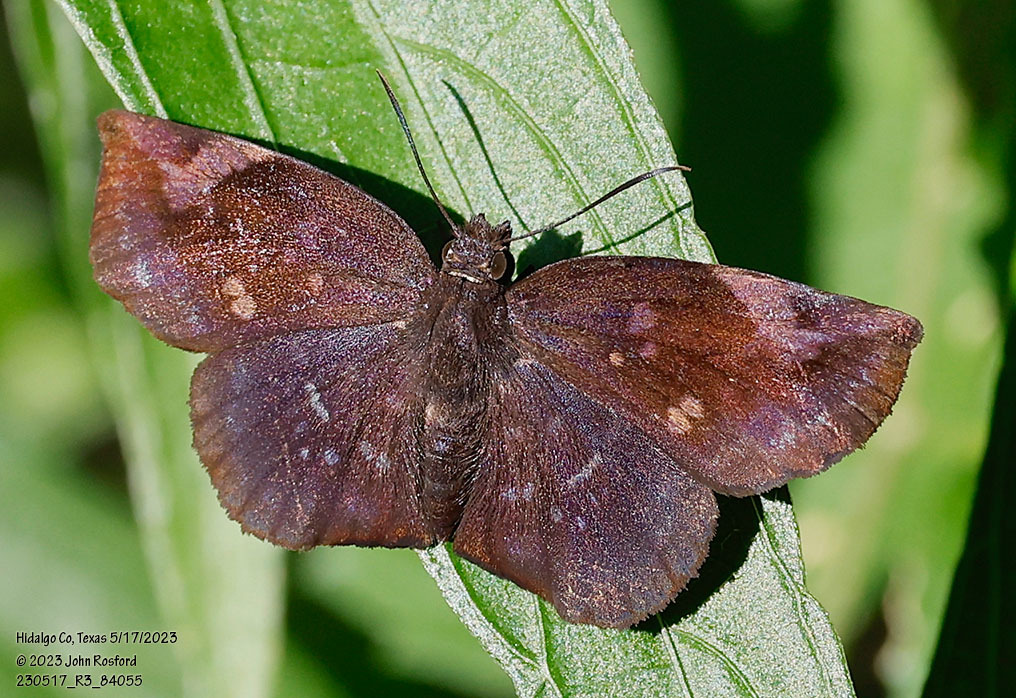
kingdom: Animalia
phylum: Arthropoda
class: Insecta
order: Lepidoptera
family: Hesperiidae
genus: Achlyodes
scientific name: Achlyodes thraso
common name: Sickle-winged skipper
